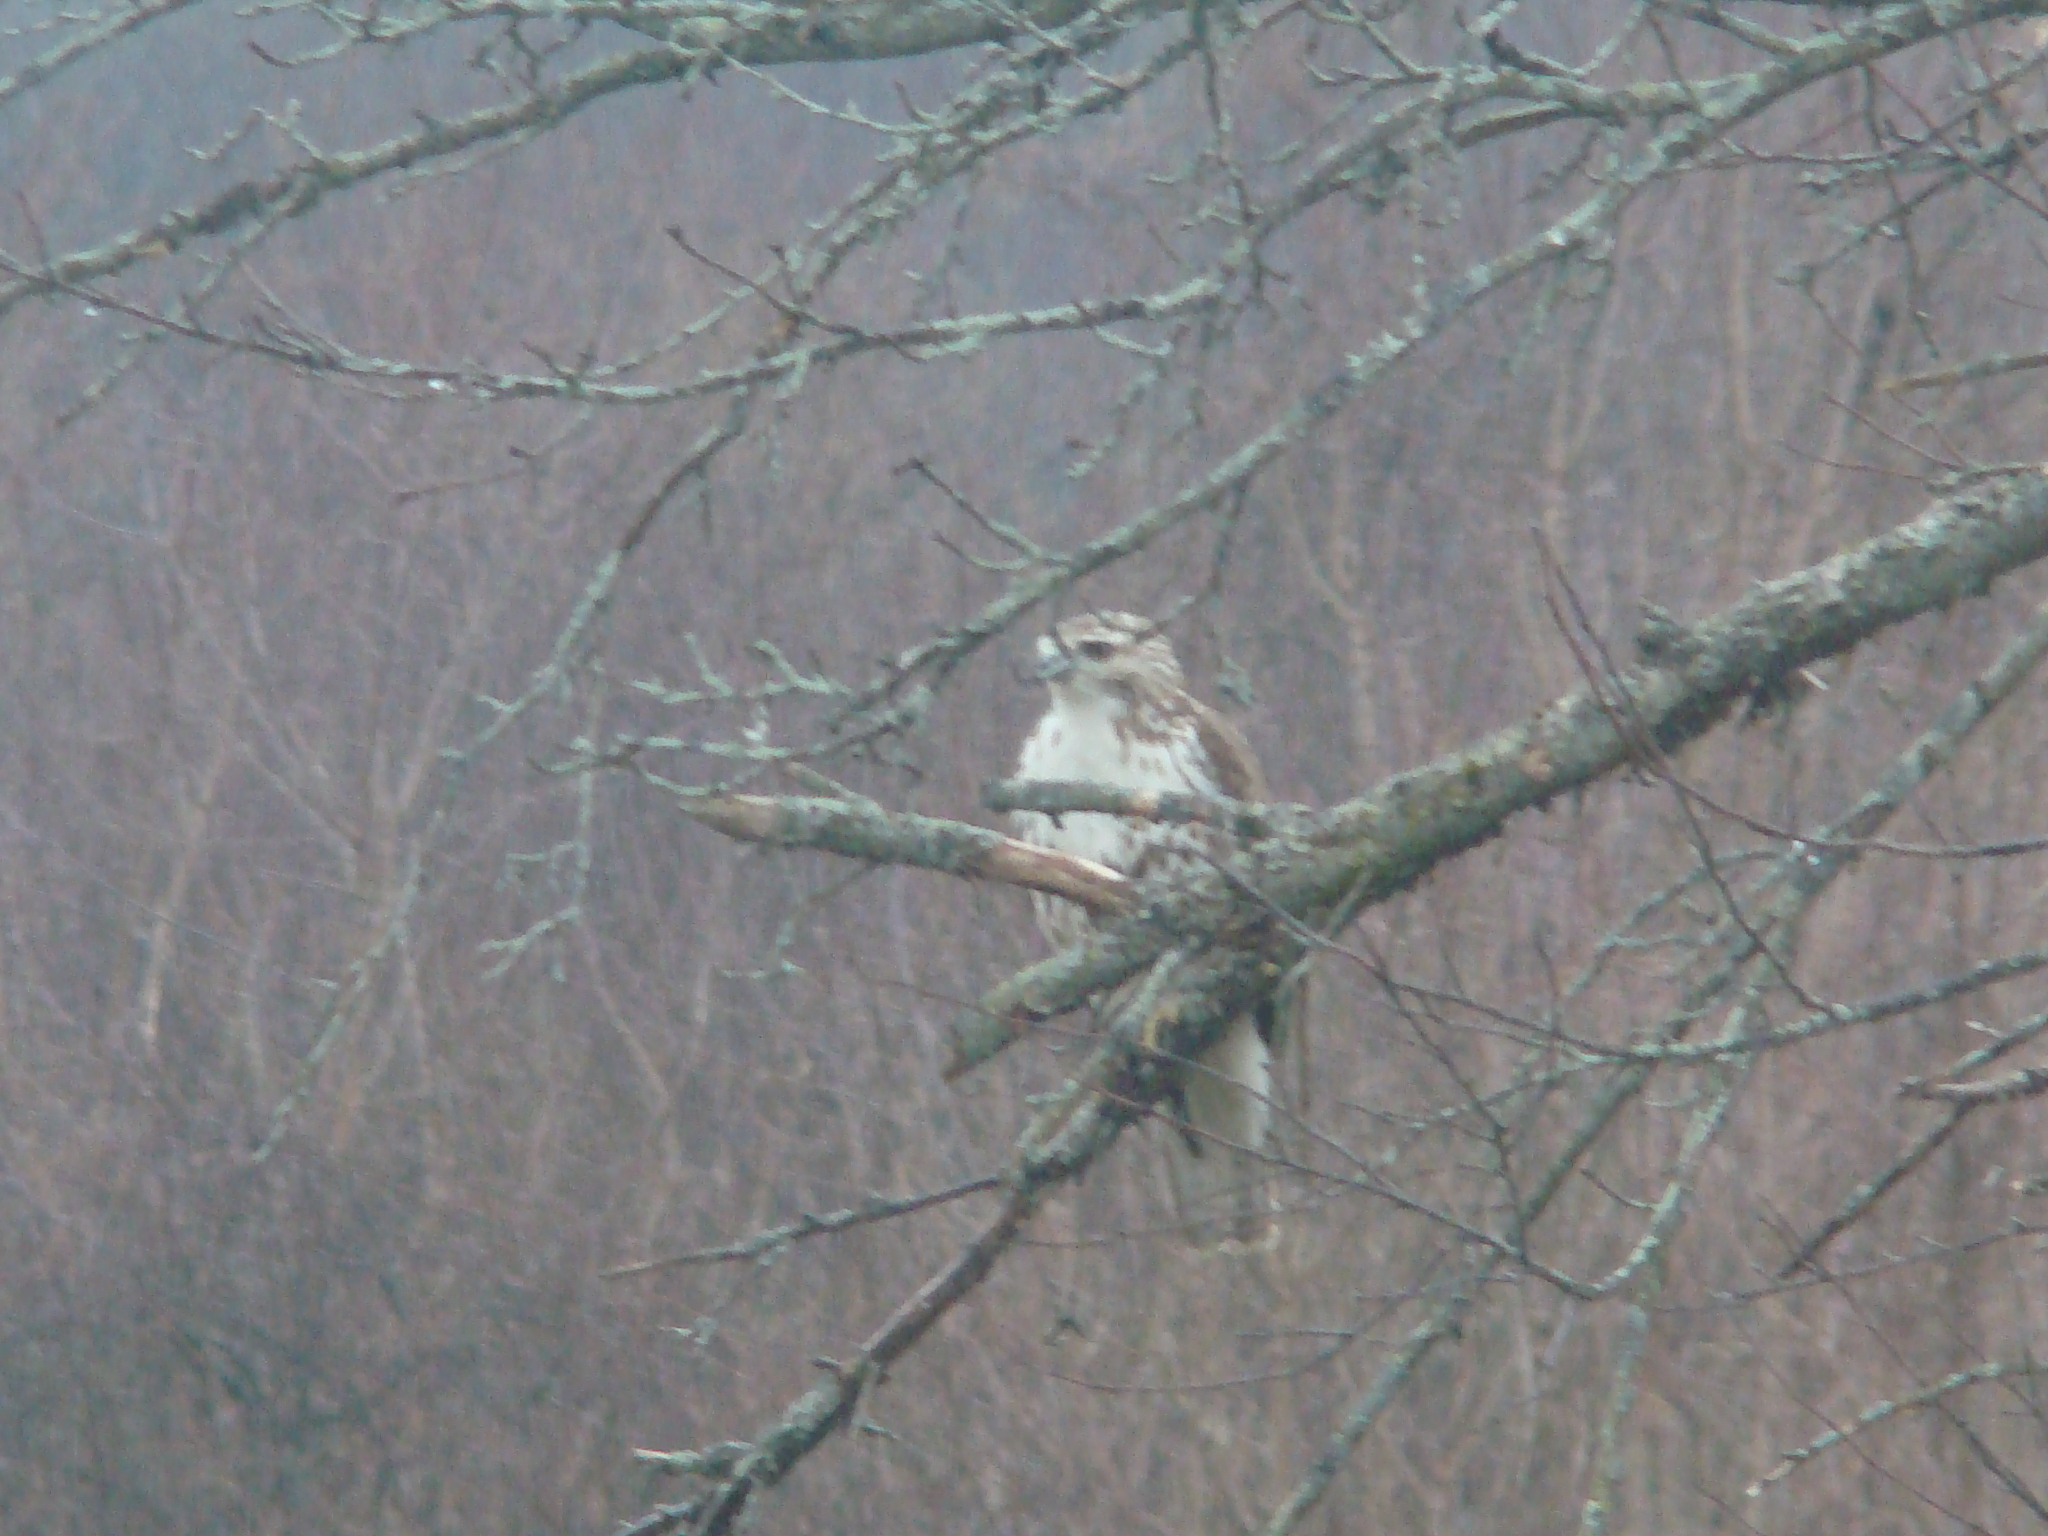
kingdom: Animalia
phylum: Chordata
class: Aves
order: Accipitriformes
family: Accipitridae
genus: Buteo
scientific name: Buteo lagopus
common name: Rough-legged buzzard
